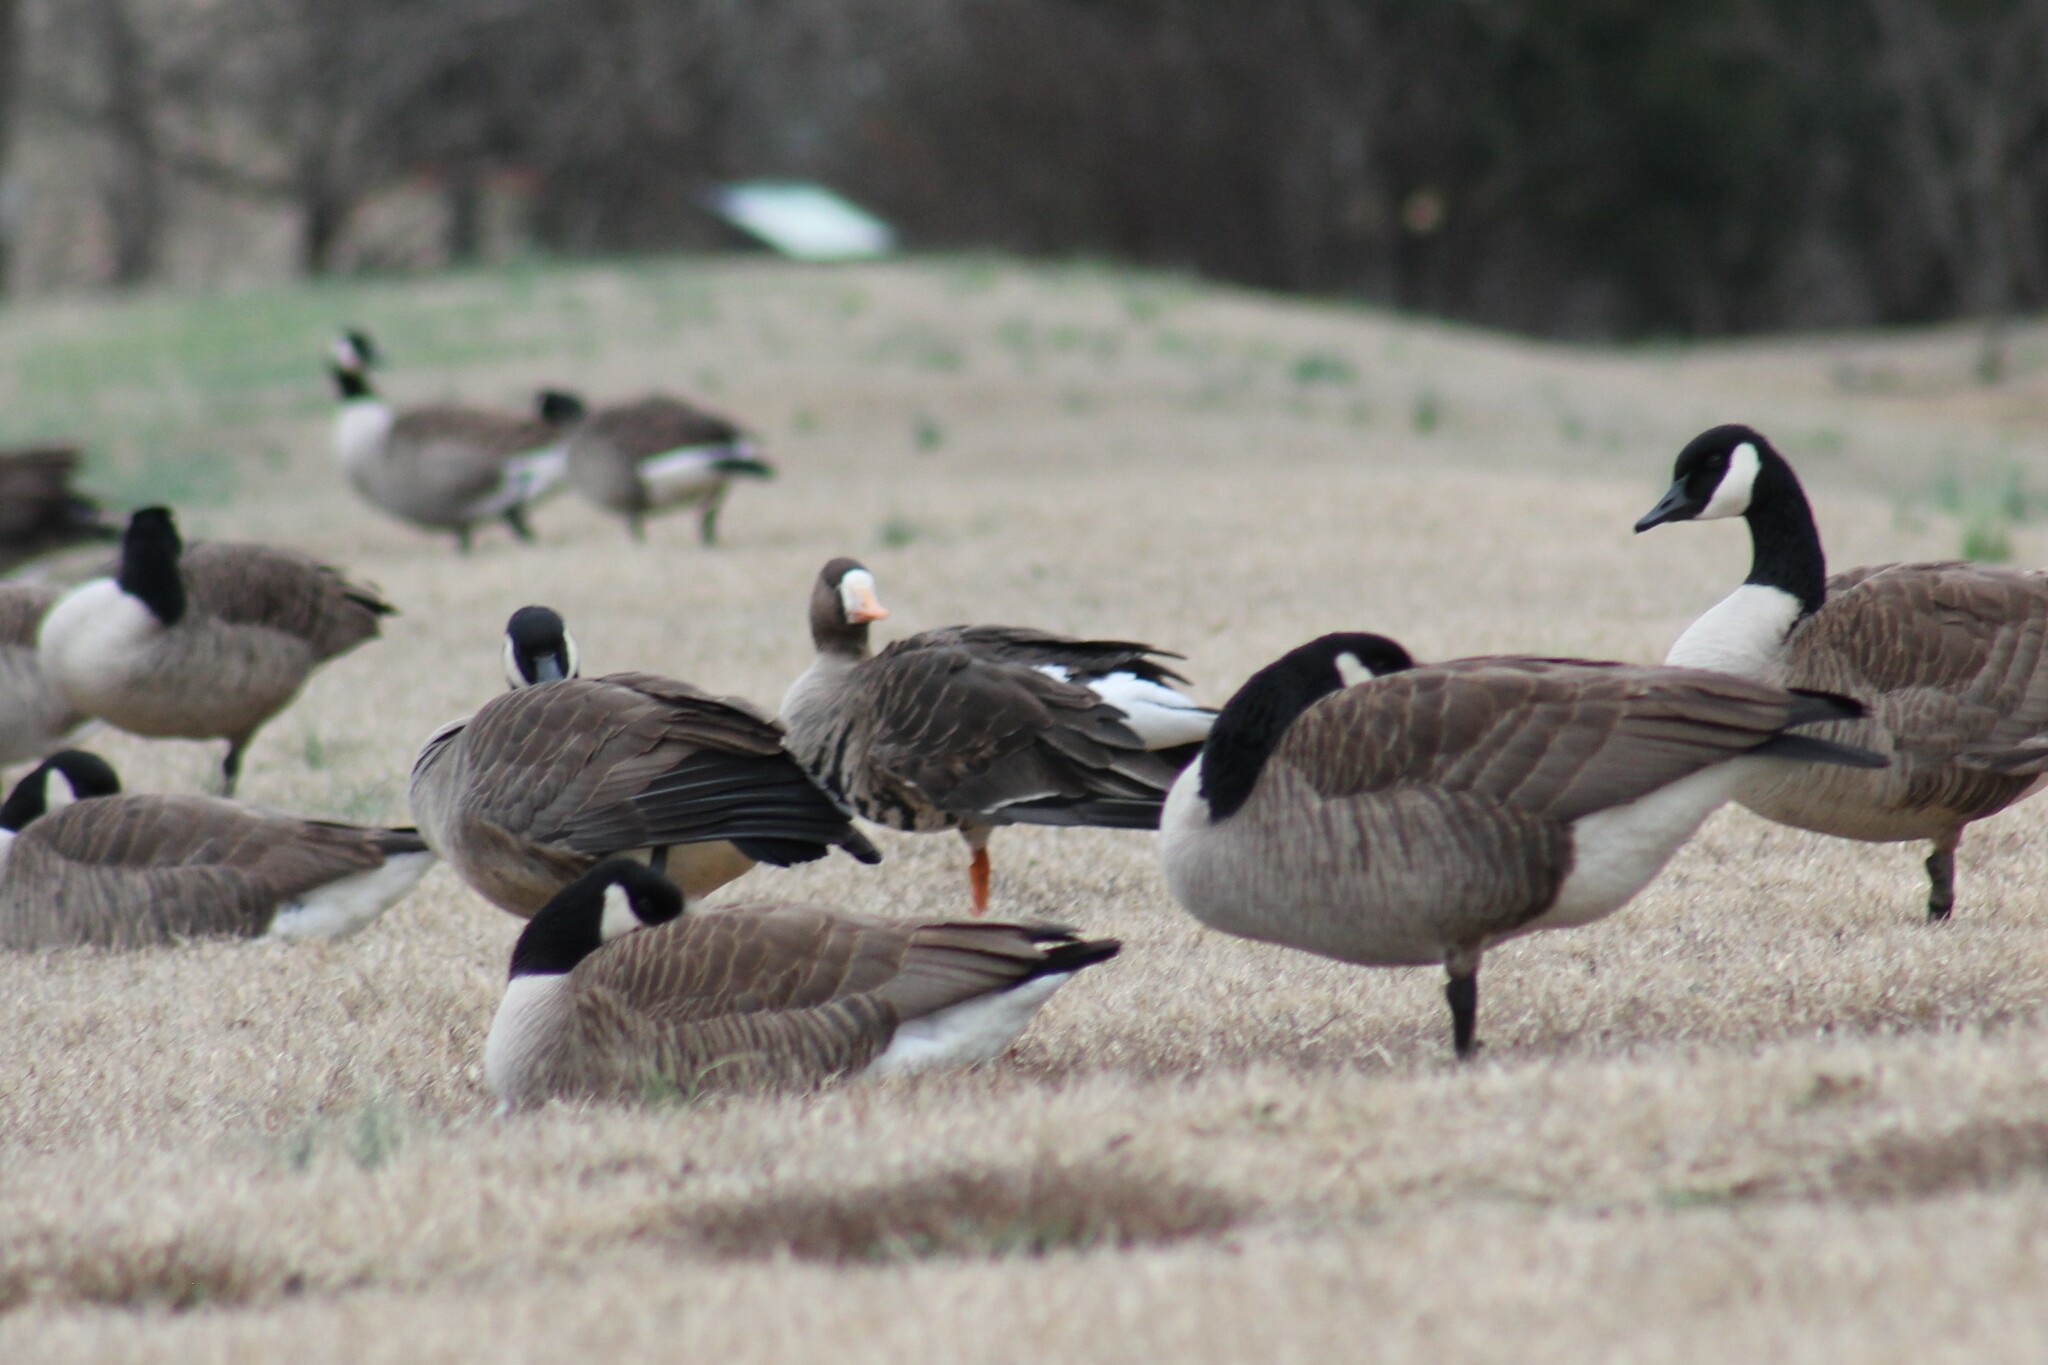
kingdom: Animalia
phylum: Chordata
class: Aves
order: Anseriformes
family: Anatidae
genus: Anser
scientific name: Anser albifrons
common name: Greater white-fronted goose
